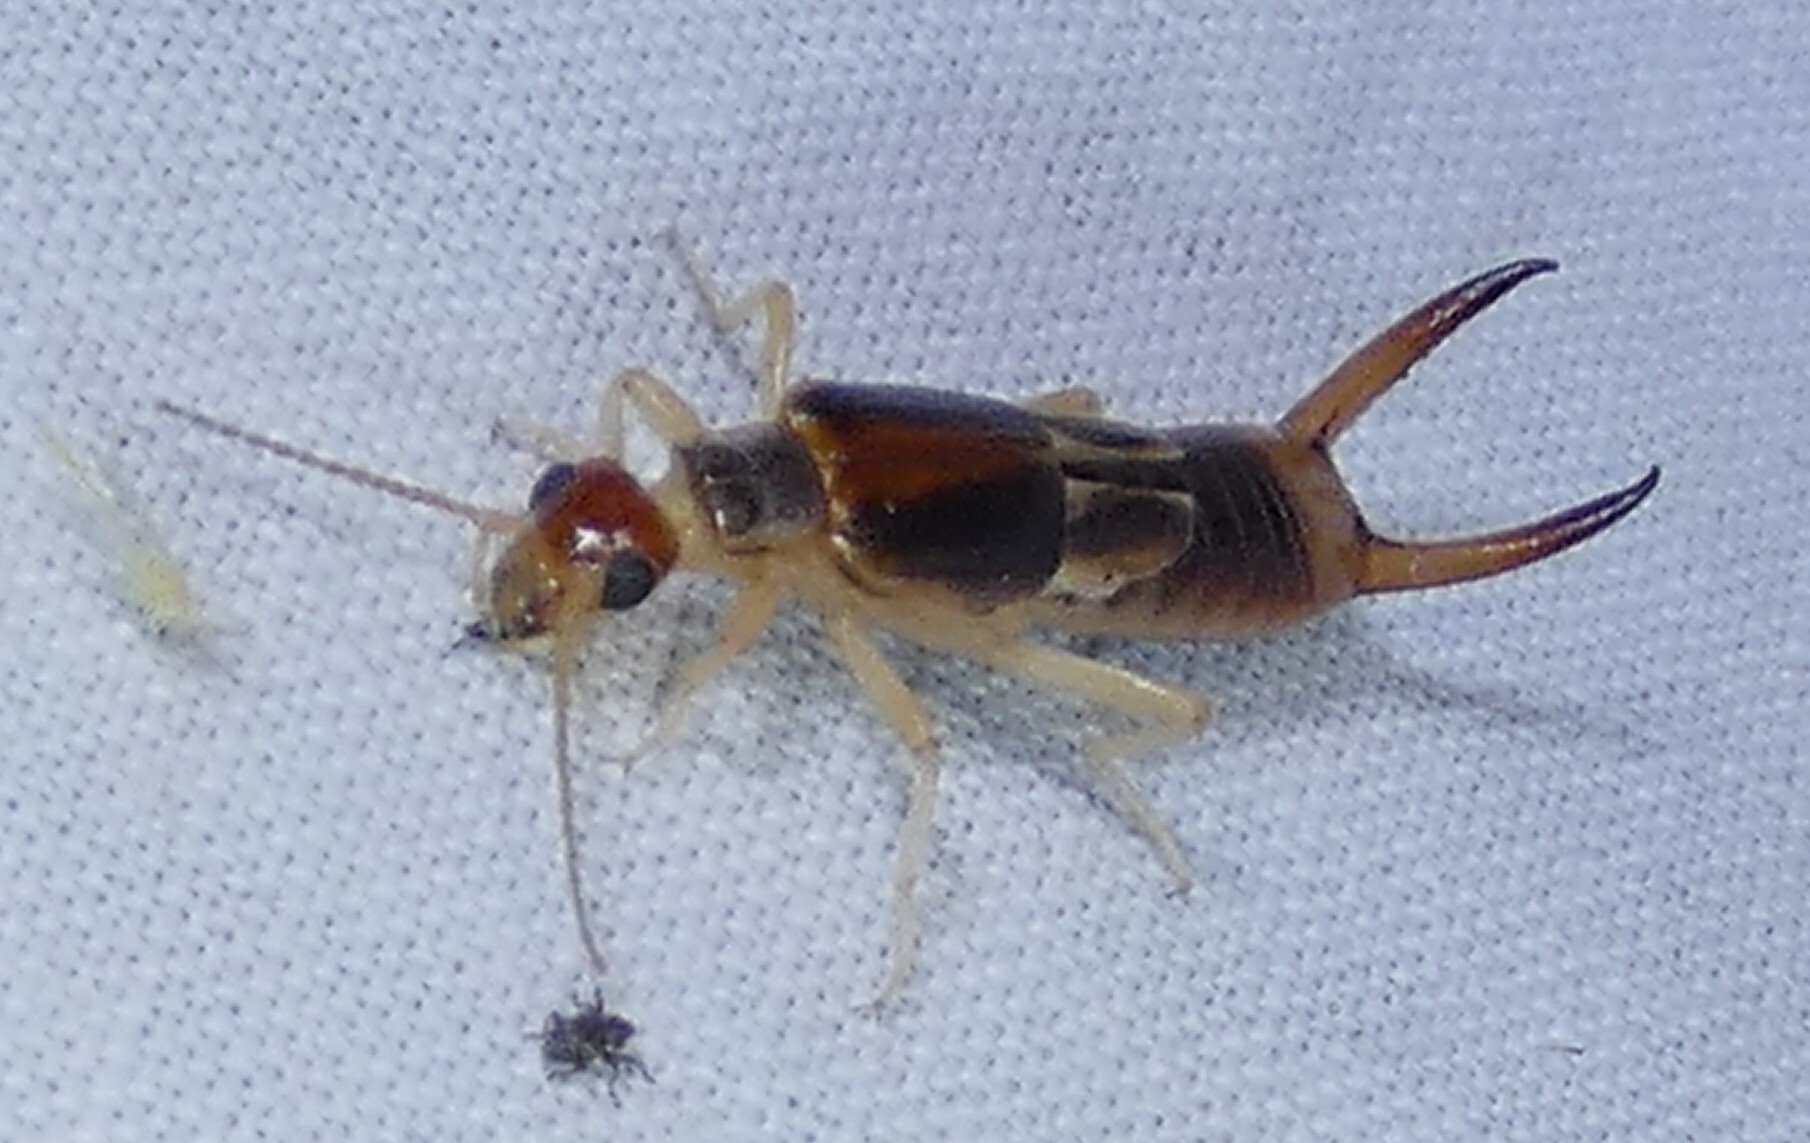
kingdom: Animalia
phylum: Arthropoda
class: Insecta
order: Dermaptera
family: Labiduridae
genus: Labidura
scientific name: Labidura riparia
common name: Striped earwig
